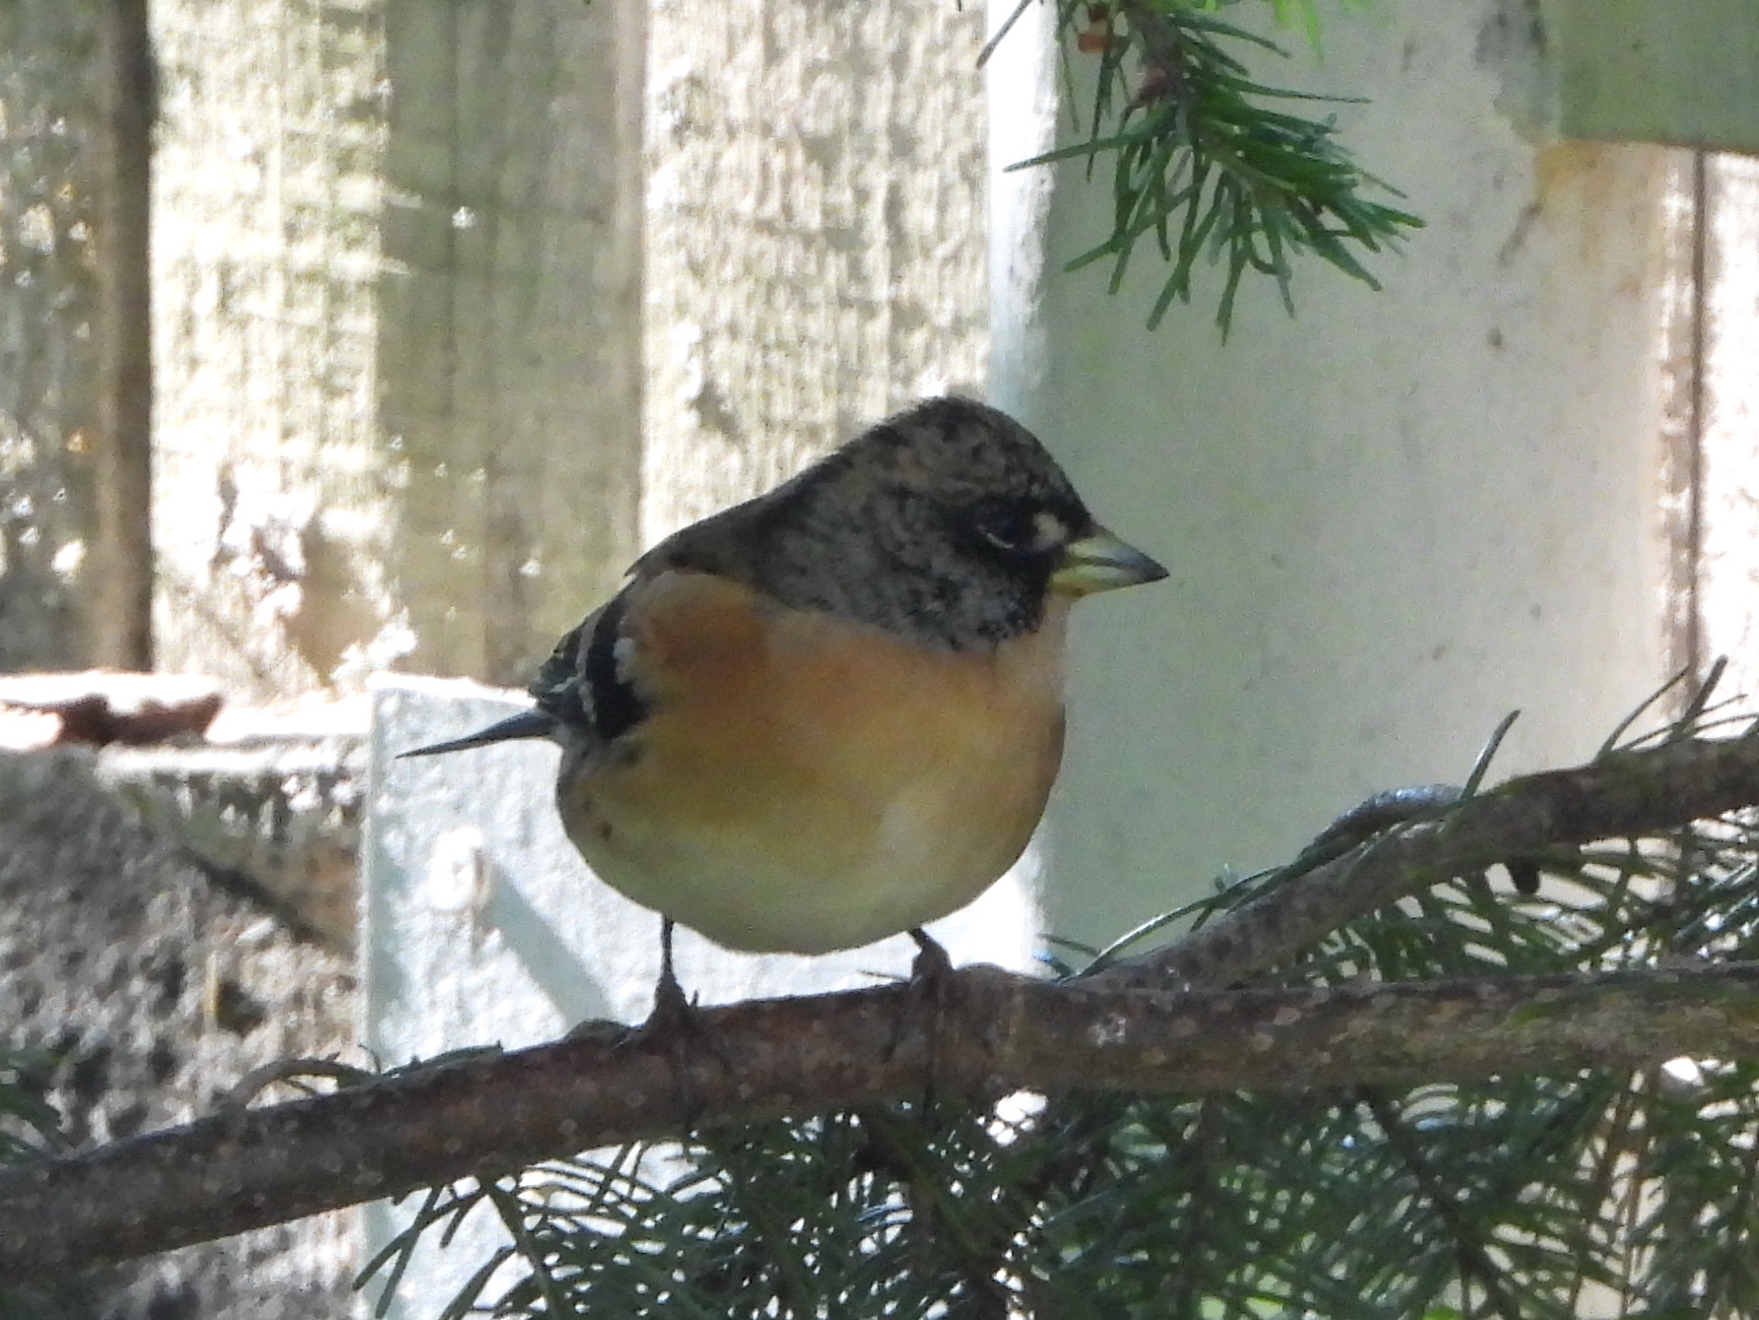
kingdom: Animalia
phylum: Chordata
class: Aves
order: Passeriformes
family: Fringillidae
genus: Fringilla
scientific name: Fringilla montifringilla
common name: Brambling
